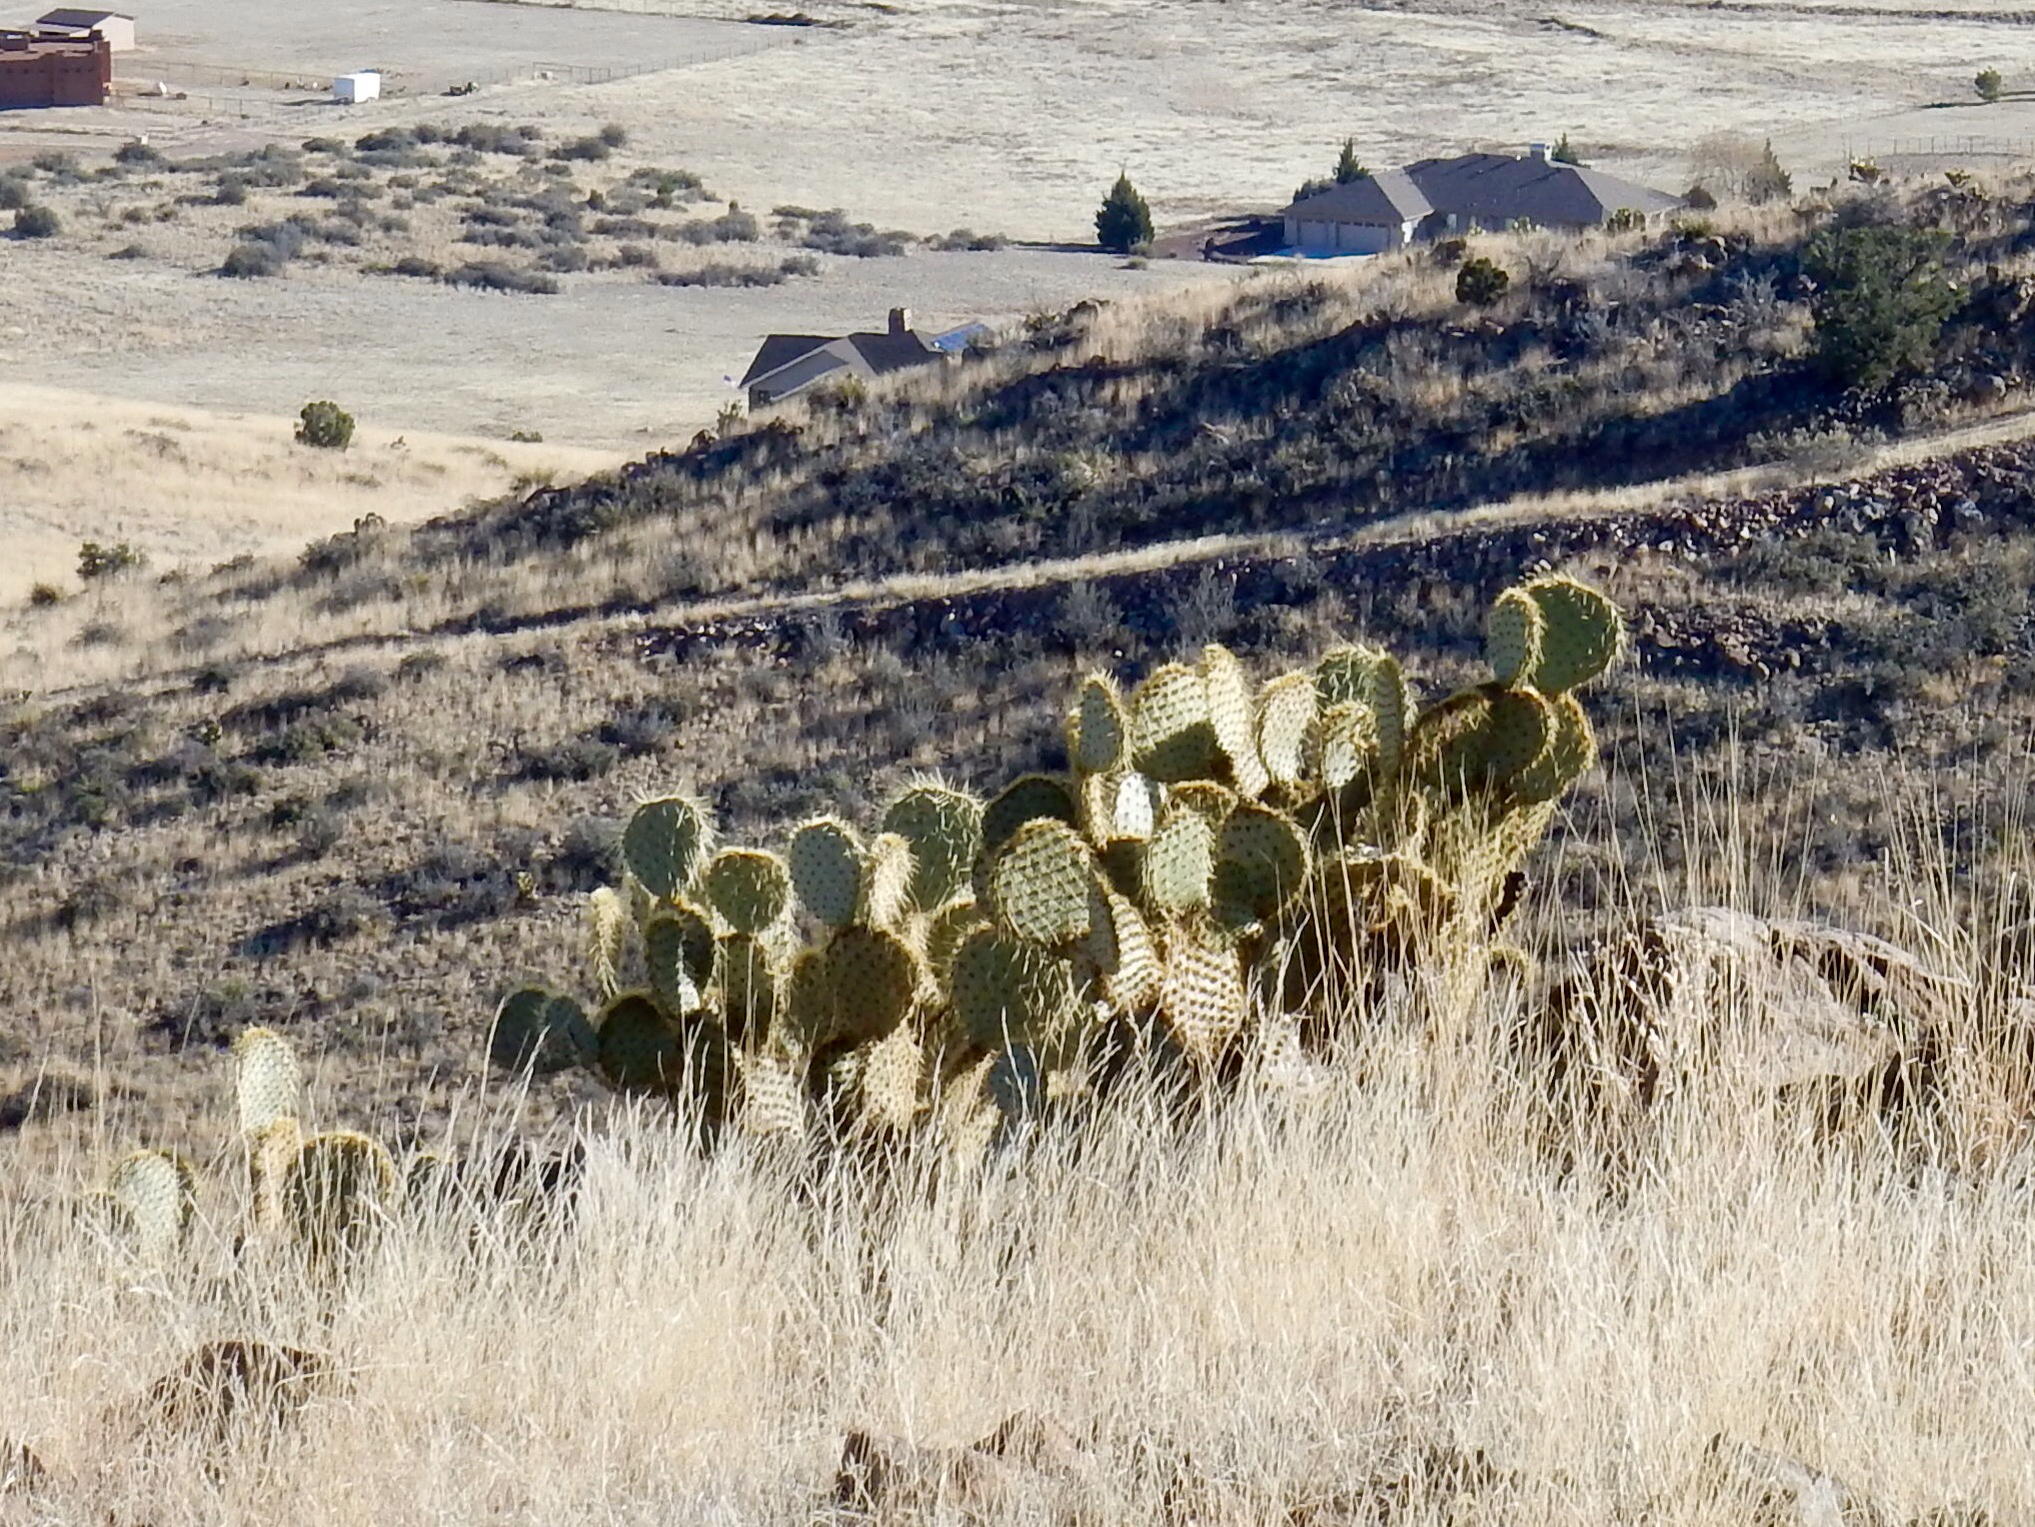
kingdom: Plantae
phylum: Tracheophyta
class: Magnoliopsida
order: Caryophyllales
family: Cactaceae
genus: Opuntia
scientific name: Opuntia chlorotica
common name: Dollar-joint prickly-pear
